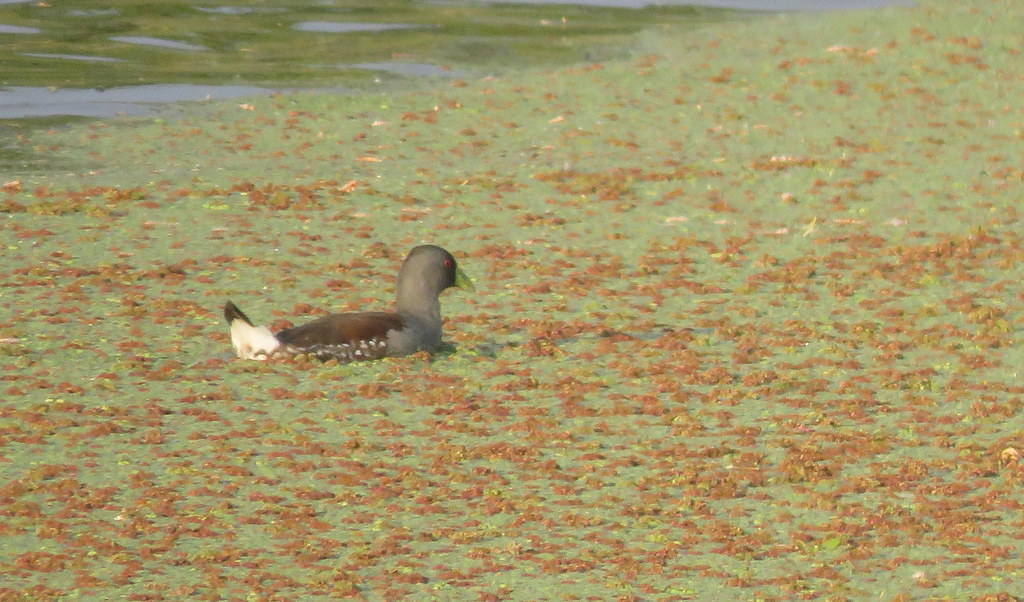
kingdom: Animalia
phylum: Chordata
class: Aves
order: Gruiformes
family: Rallidae
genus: Gallinula
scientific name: Gallinula melanops
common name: Spot-flanked gallinule
